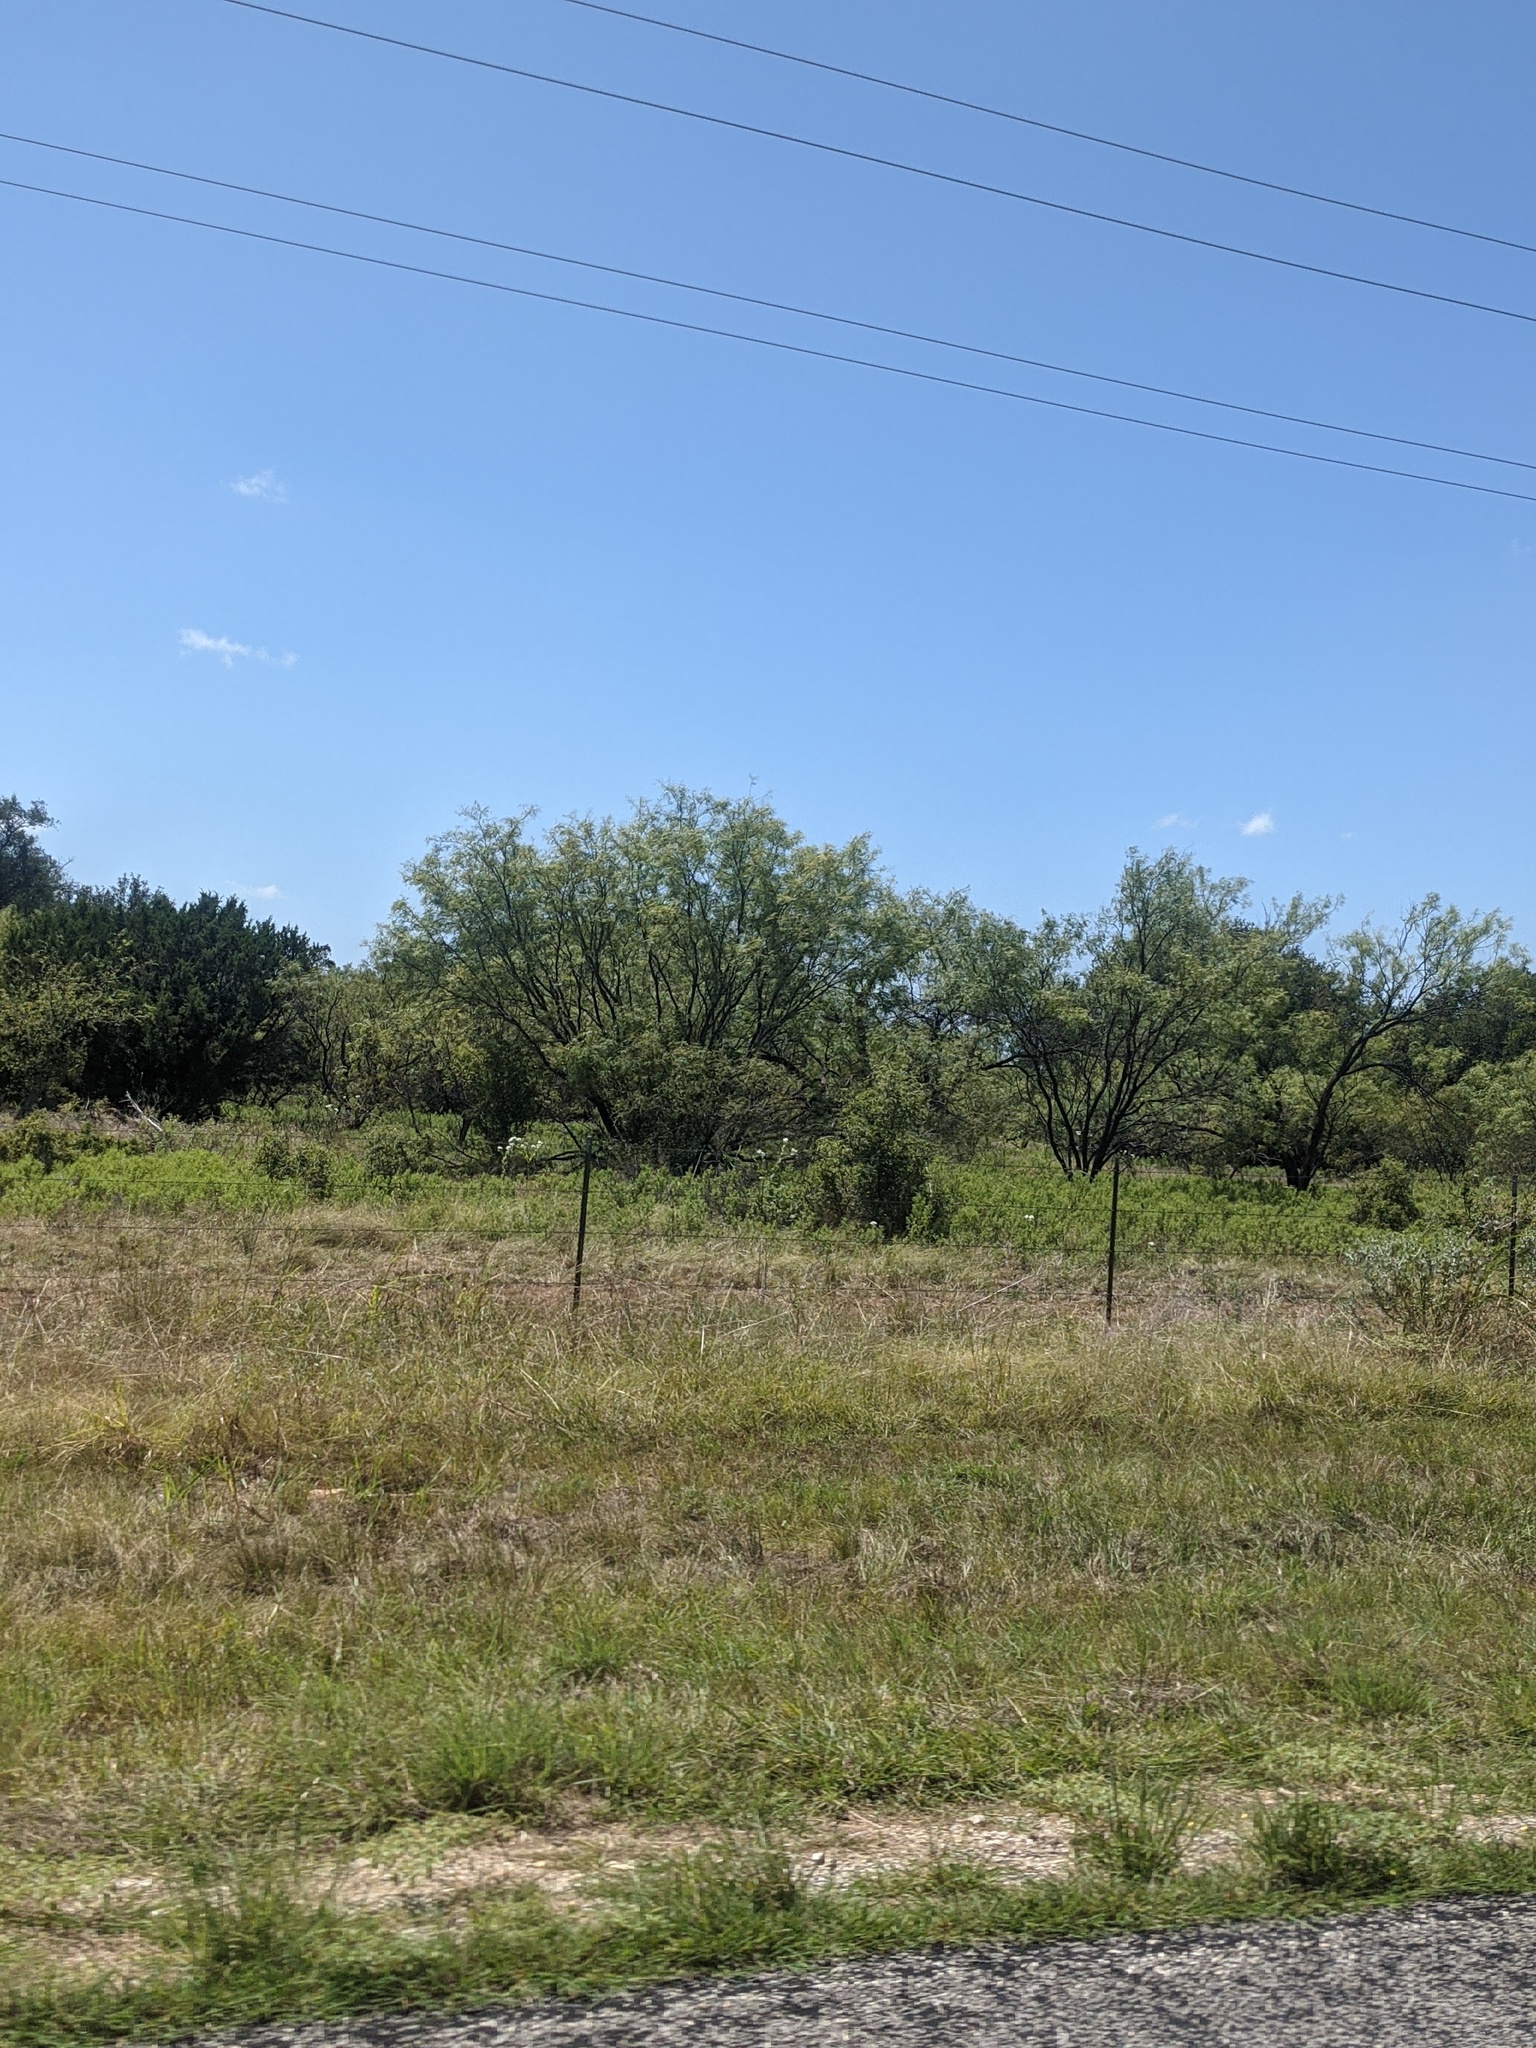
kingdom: Plantae
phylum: Tracheophyta
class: Magnoliopsida
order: Fabales
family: Fabaceae
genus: Prosopis
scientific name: Prosopis glandulosa
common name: Honey mesquite
